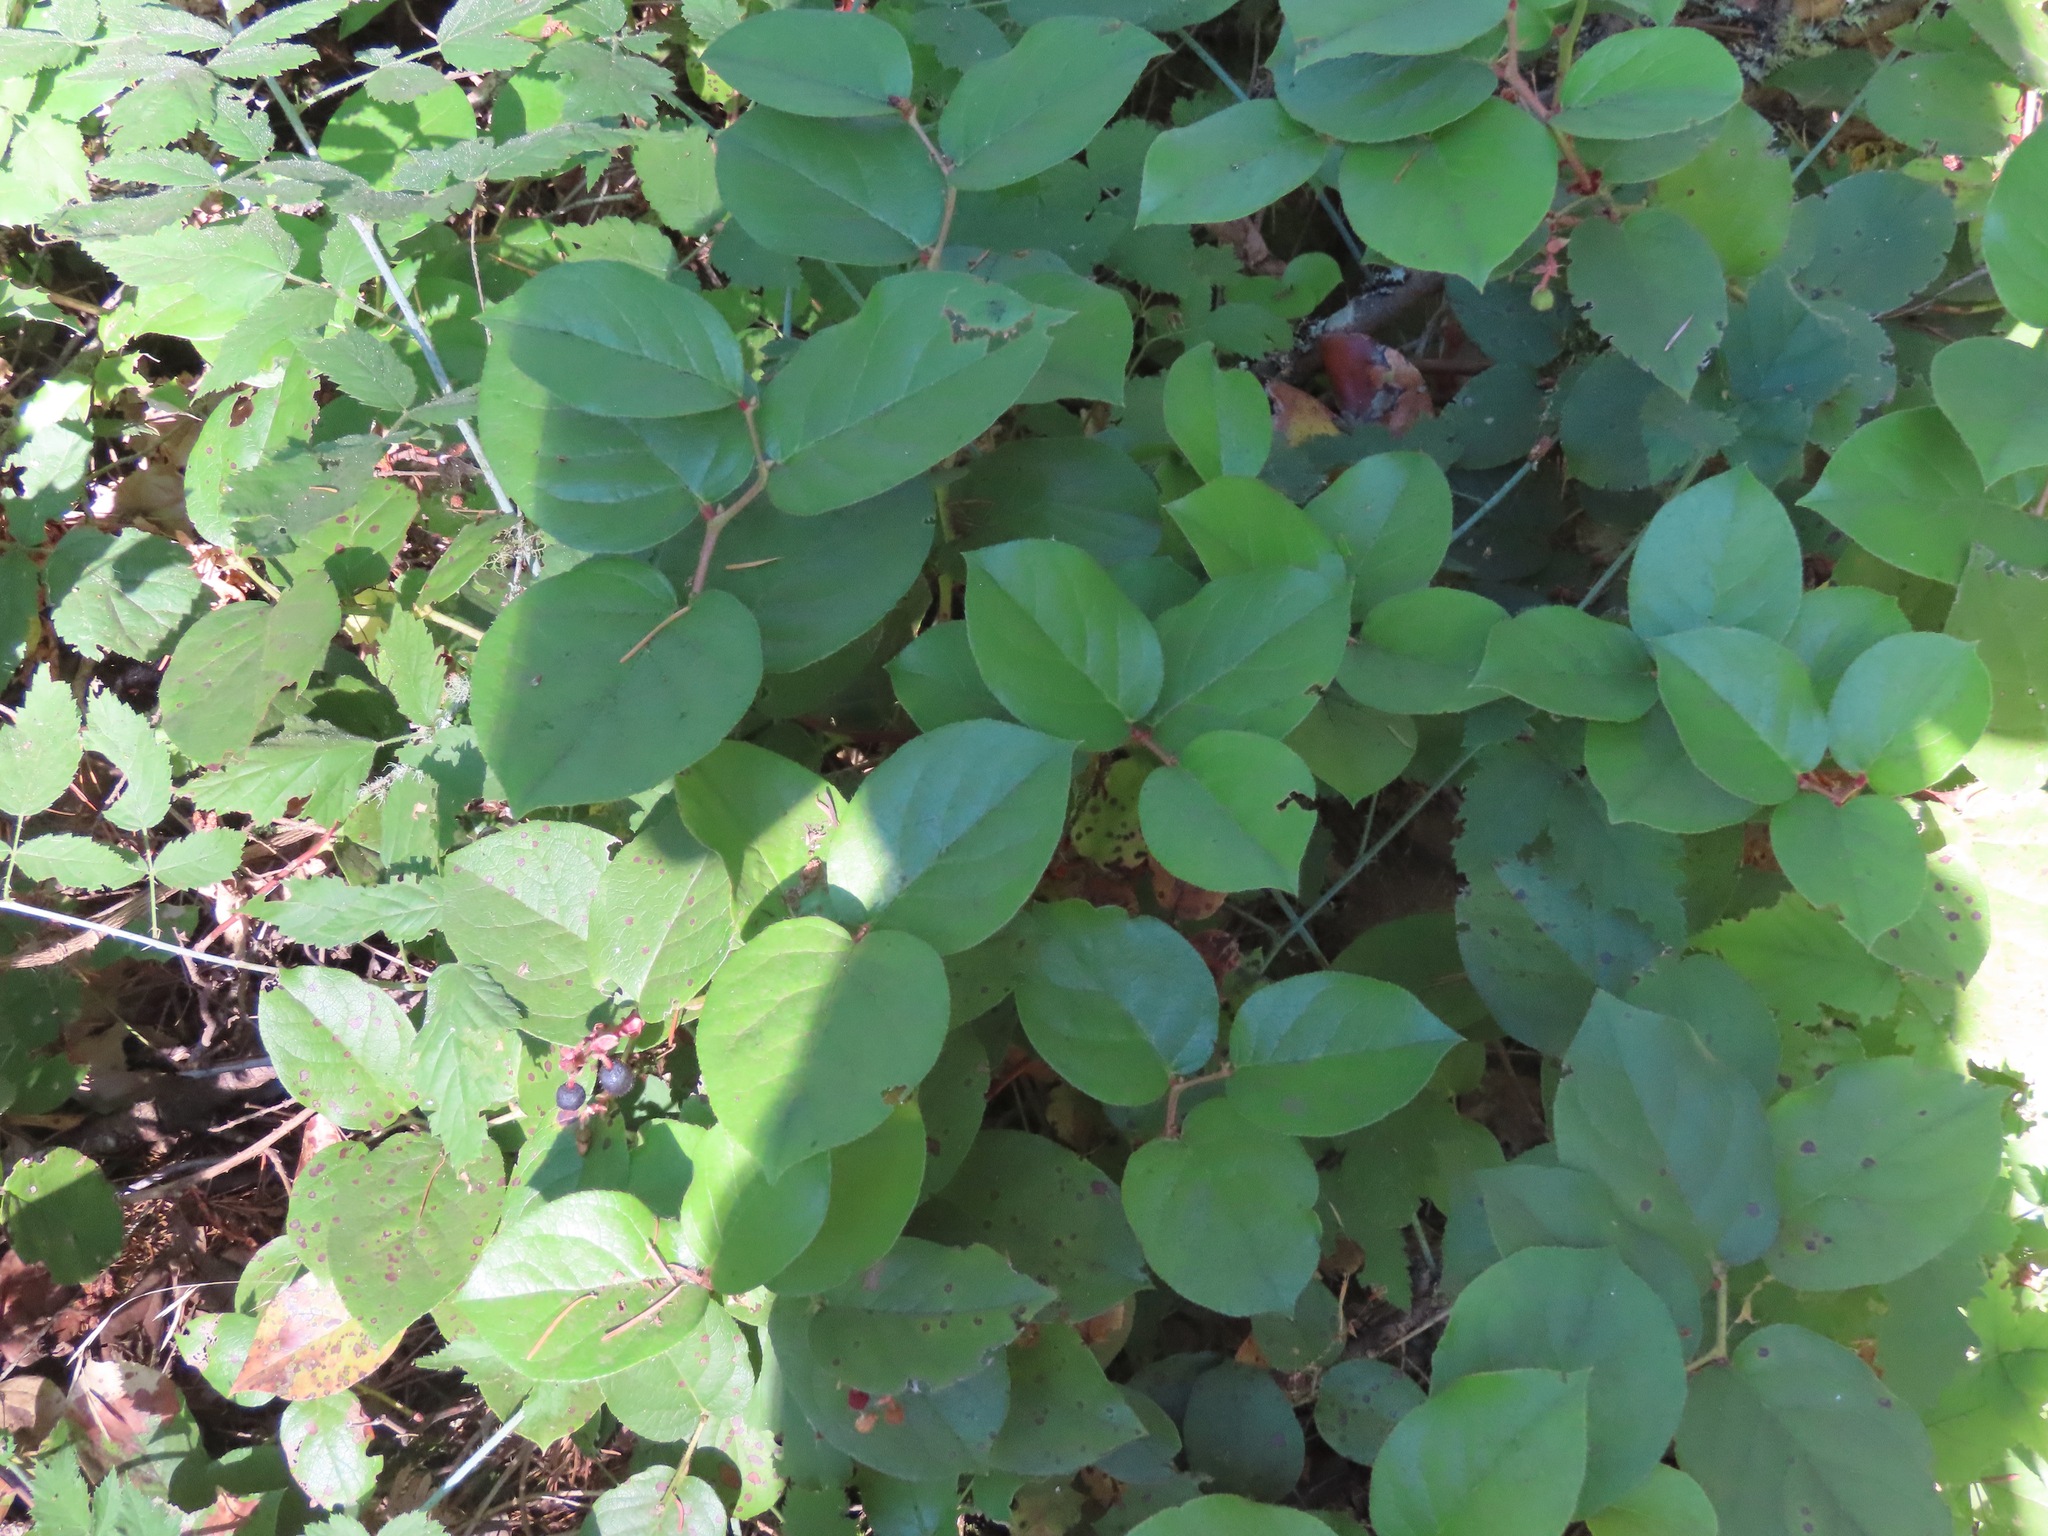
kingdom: Plantae
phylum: Tracheophyta
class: Magnoliopsida
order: Ericales
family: Ericaceae
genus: Gaultheria
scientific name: Gaultheria shallon
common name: Shallon
